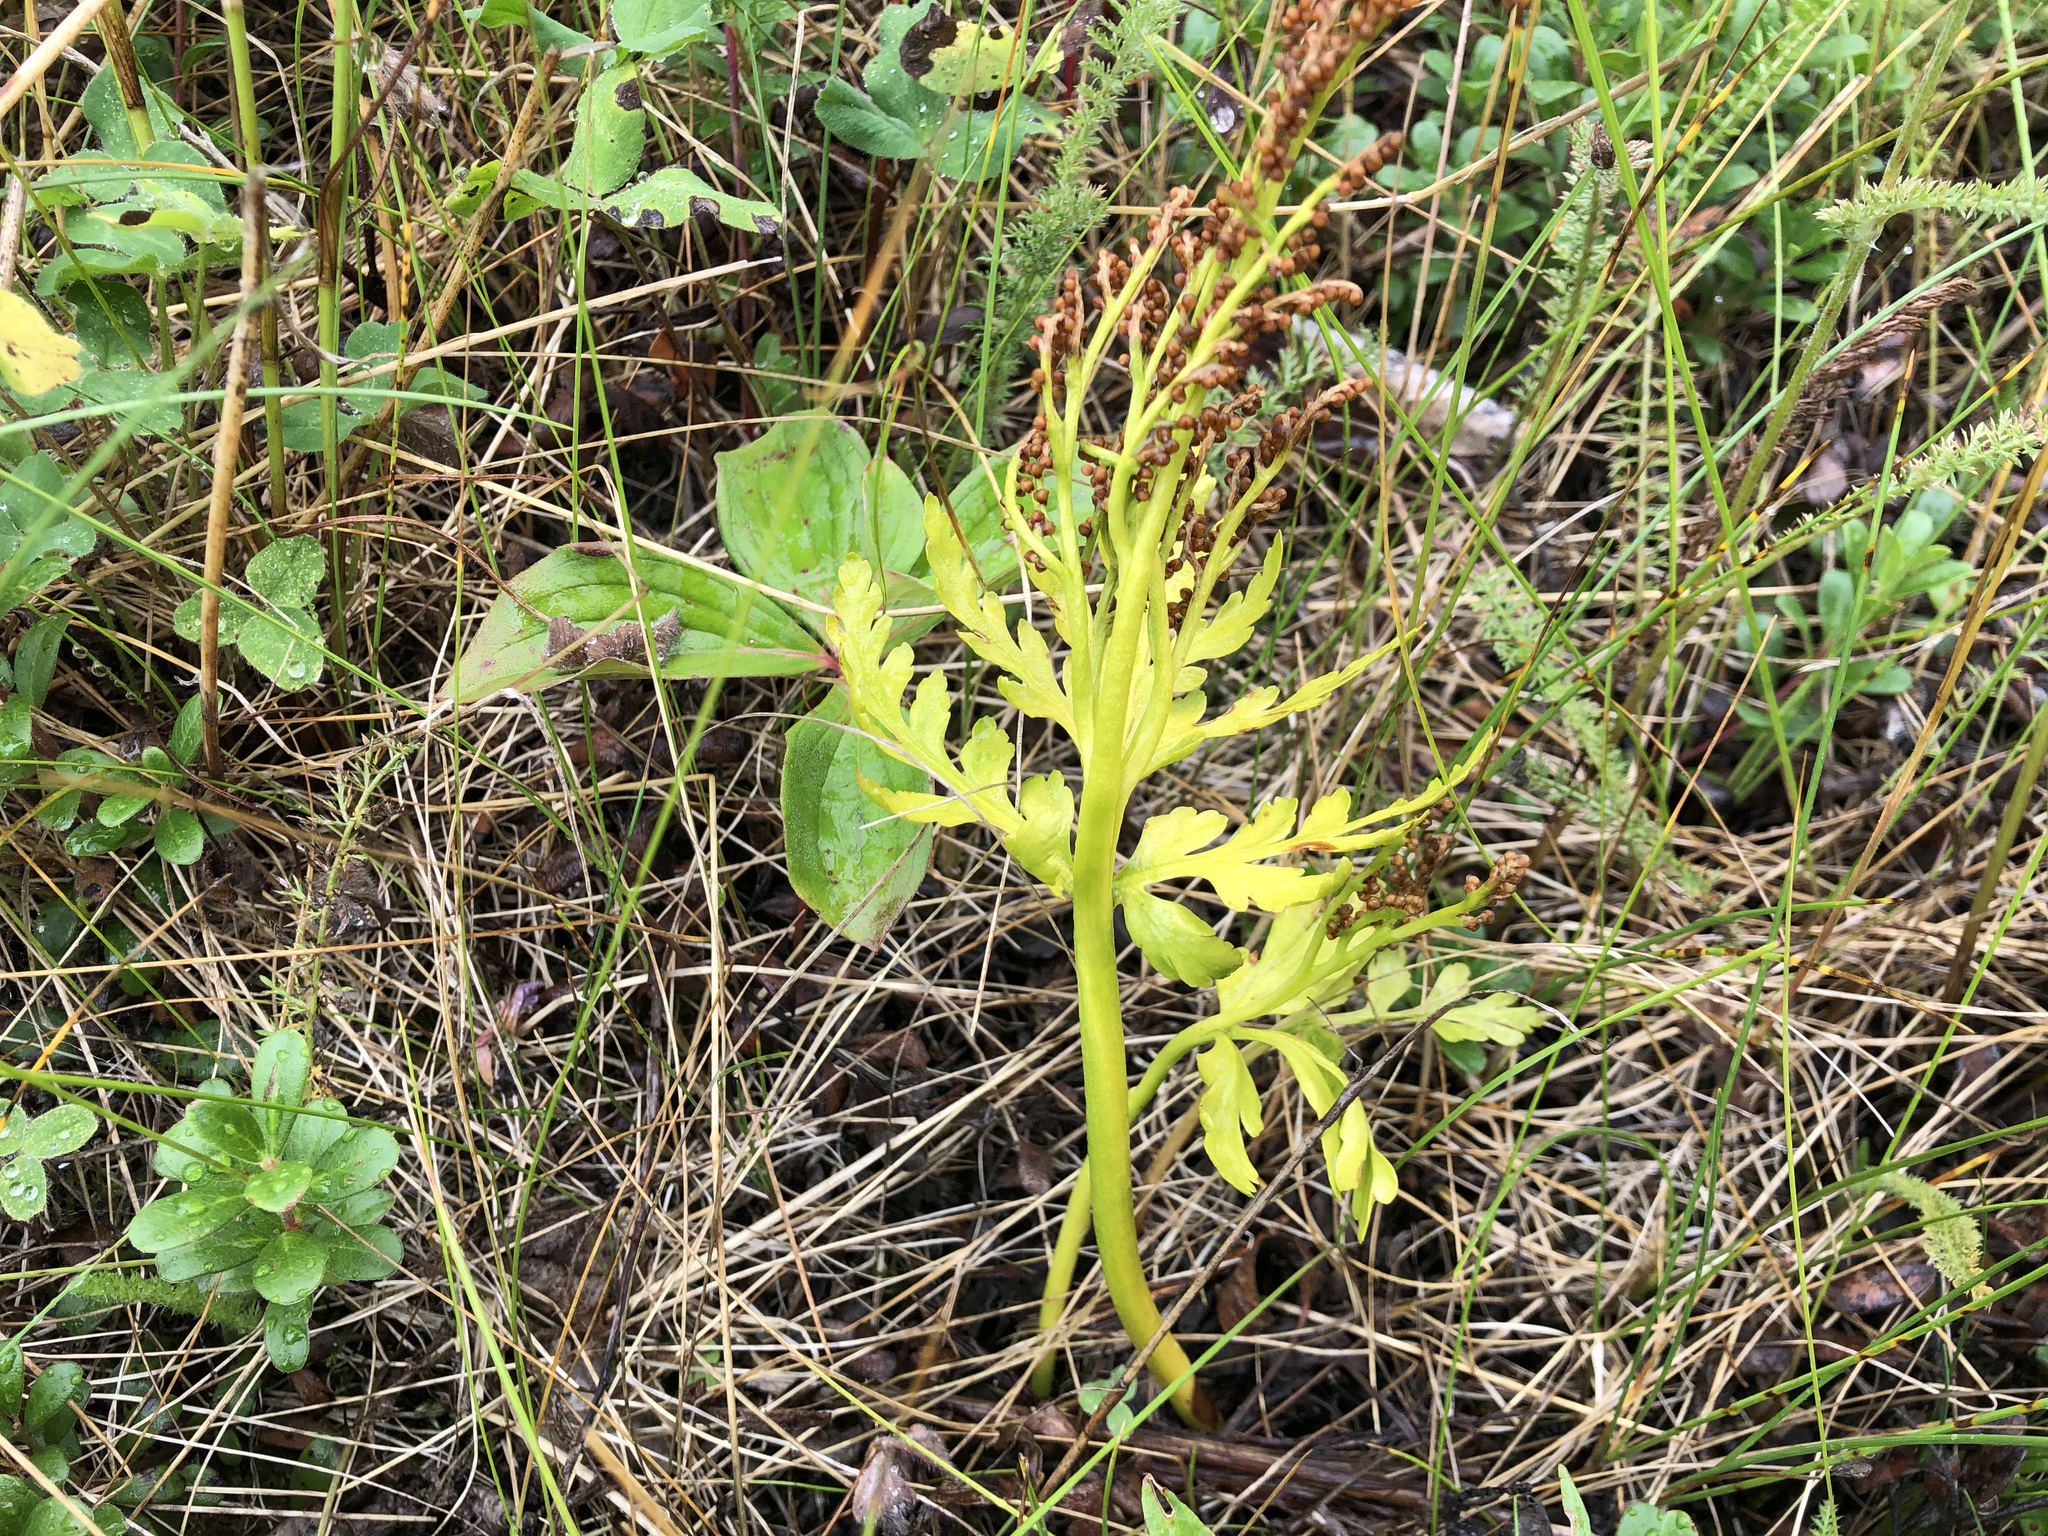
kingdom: Plantae
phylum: Tracheophyta
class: Polypodiopsida
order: Ophioglossales
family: Ophioglossaceae
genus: Botrychium
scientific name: Botrychium lanceolatum
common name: Lance-leaved moonwort
